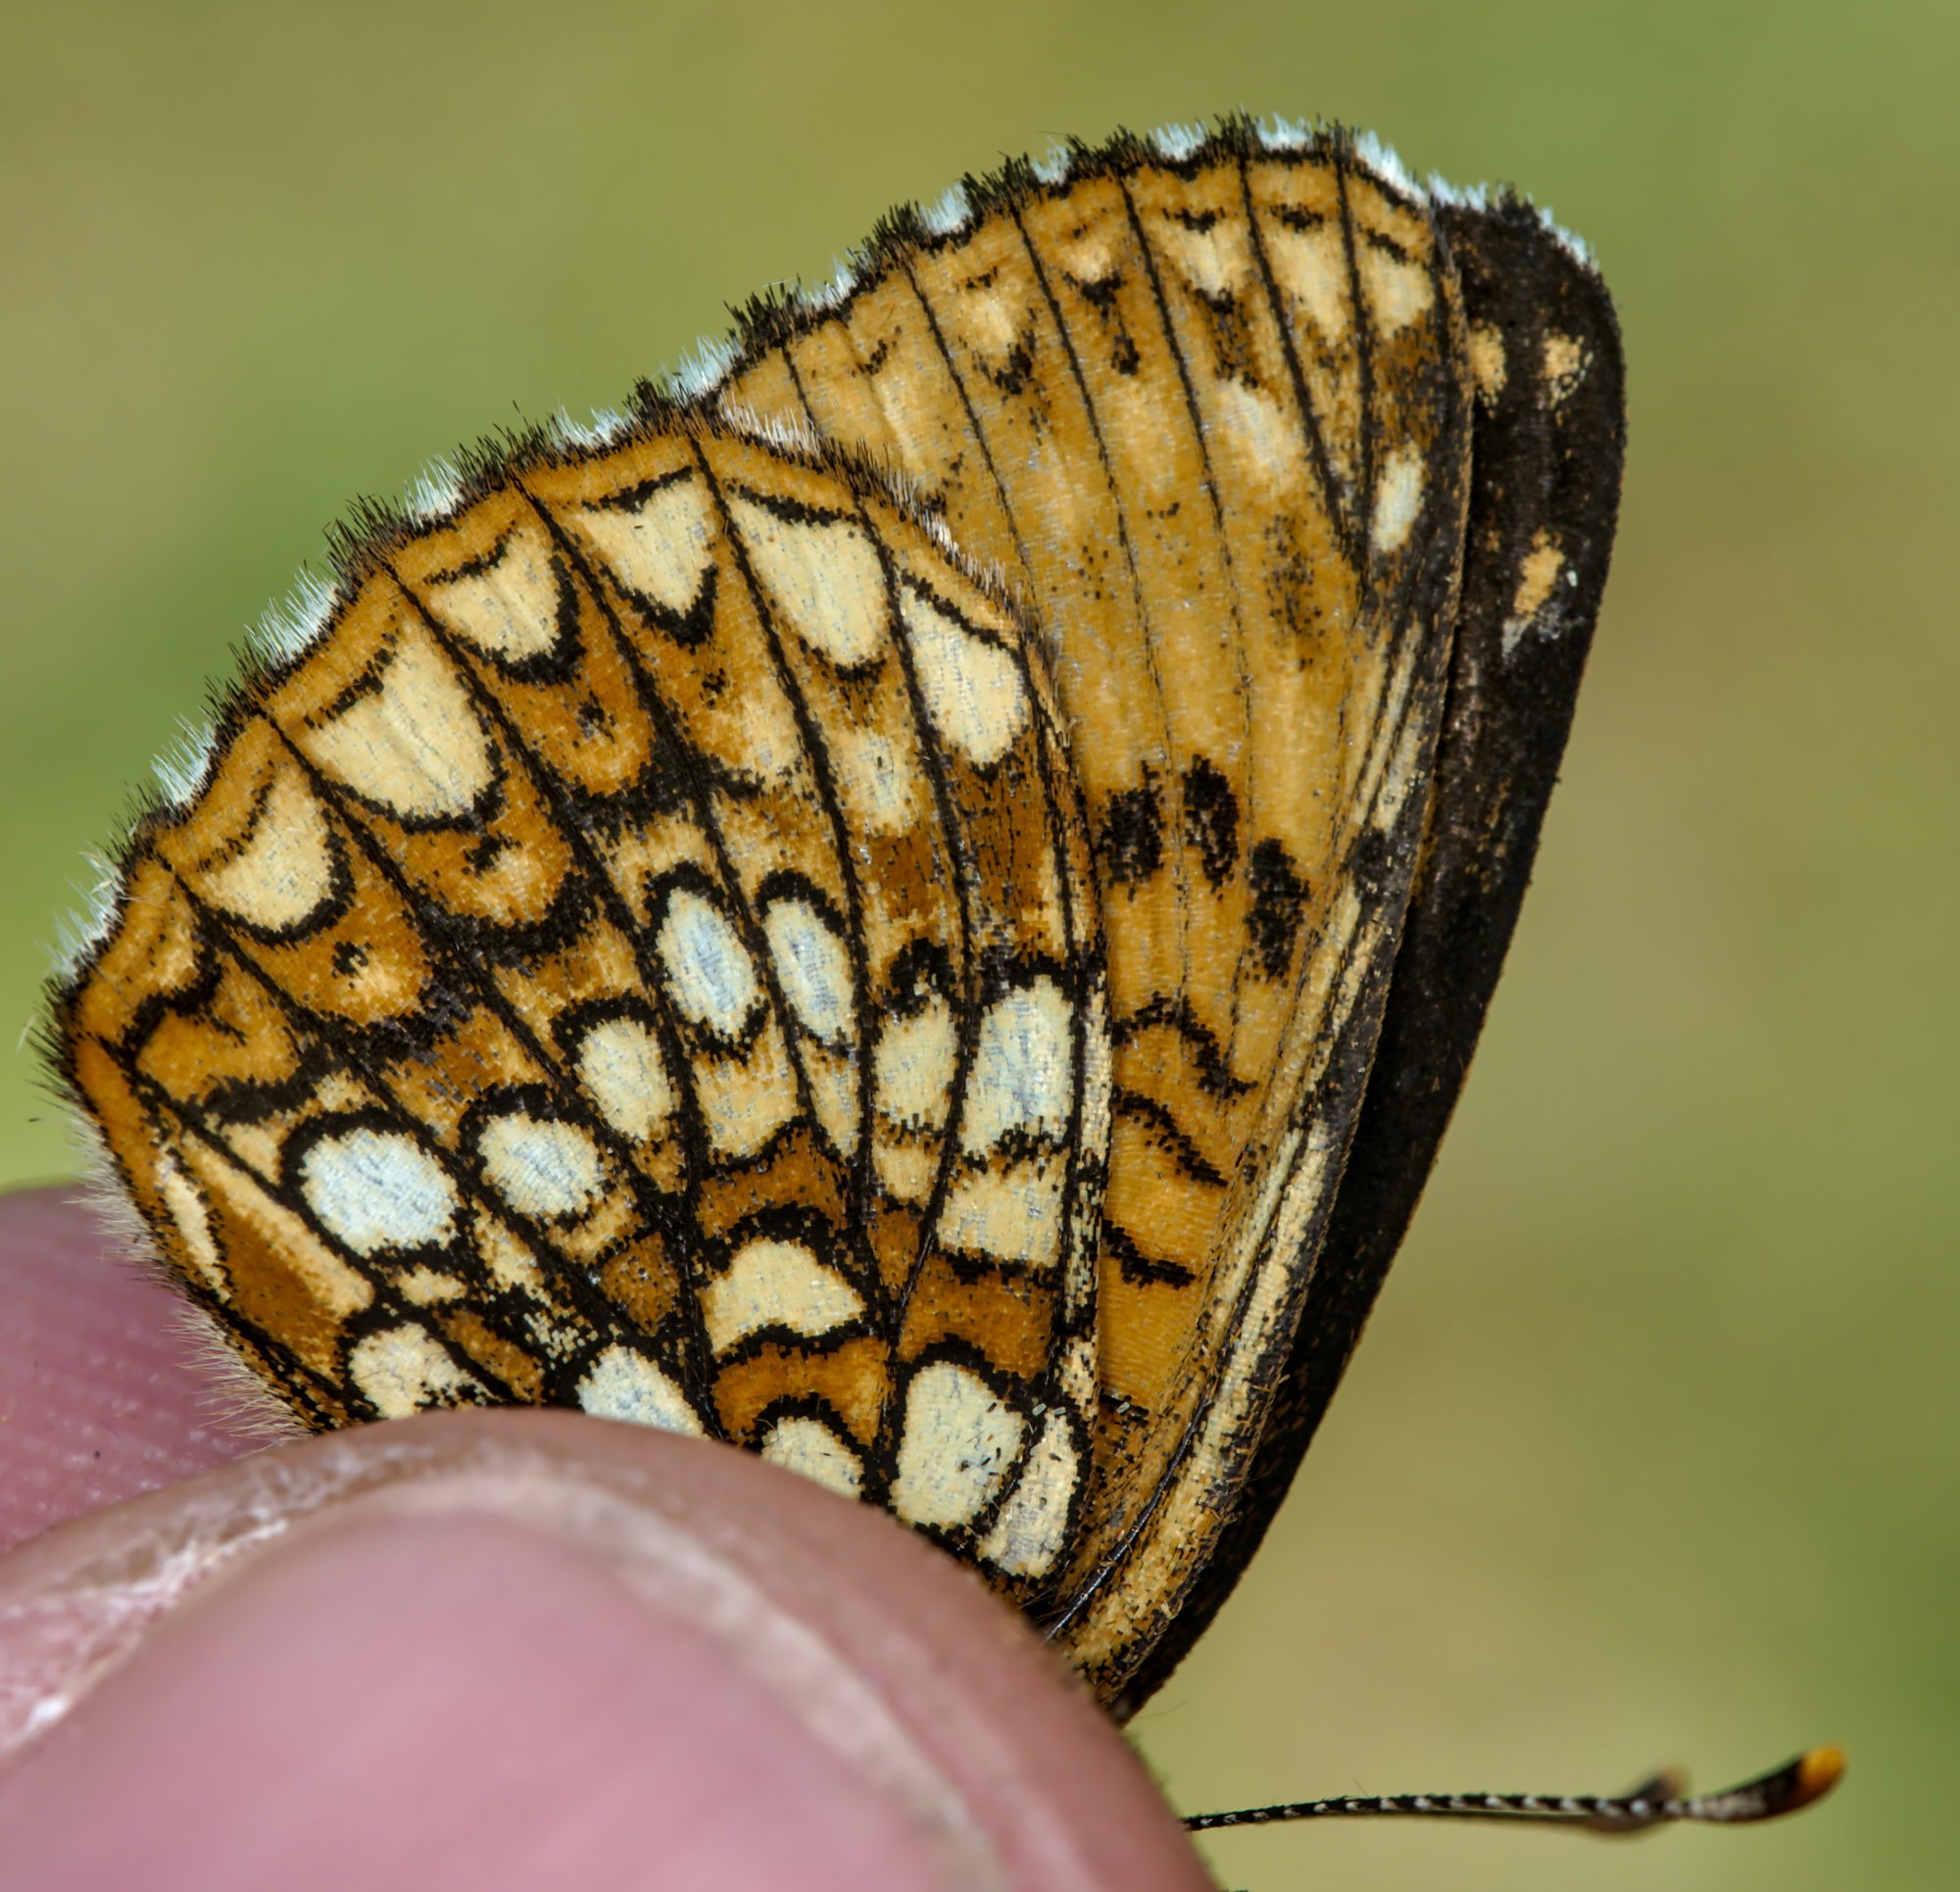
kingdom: Animalia
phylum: Arthropoda
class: Insecta
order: Lepidoptera
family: Nymphalidae
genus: Melitaea
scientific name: Melitaea diamina
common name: False heath fritillary
